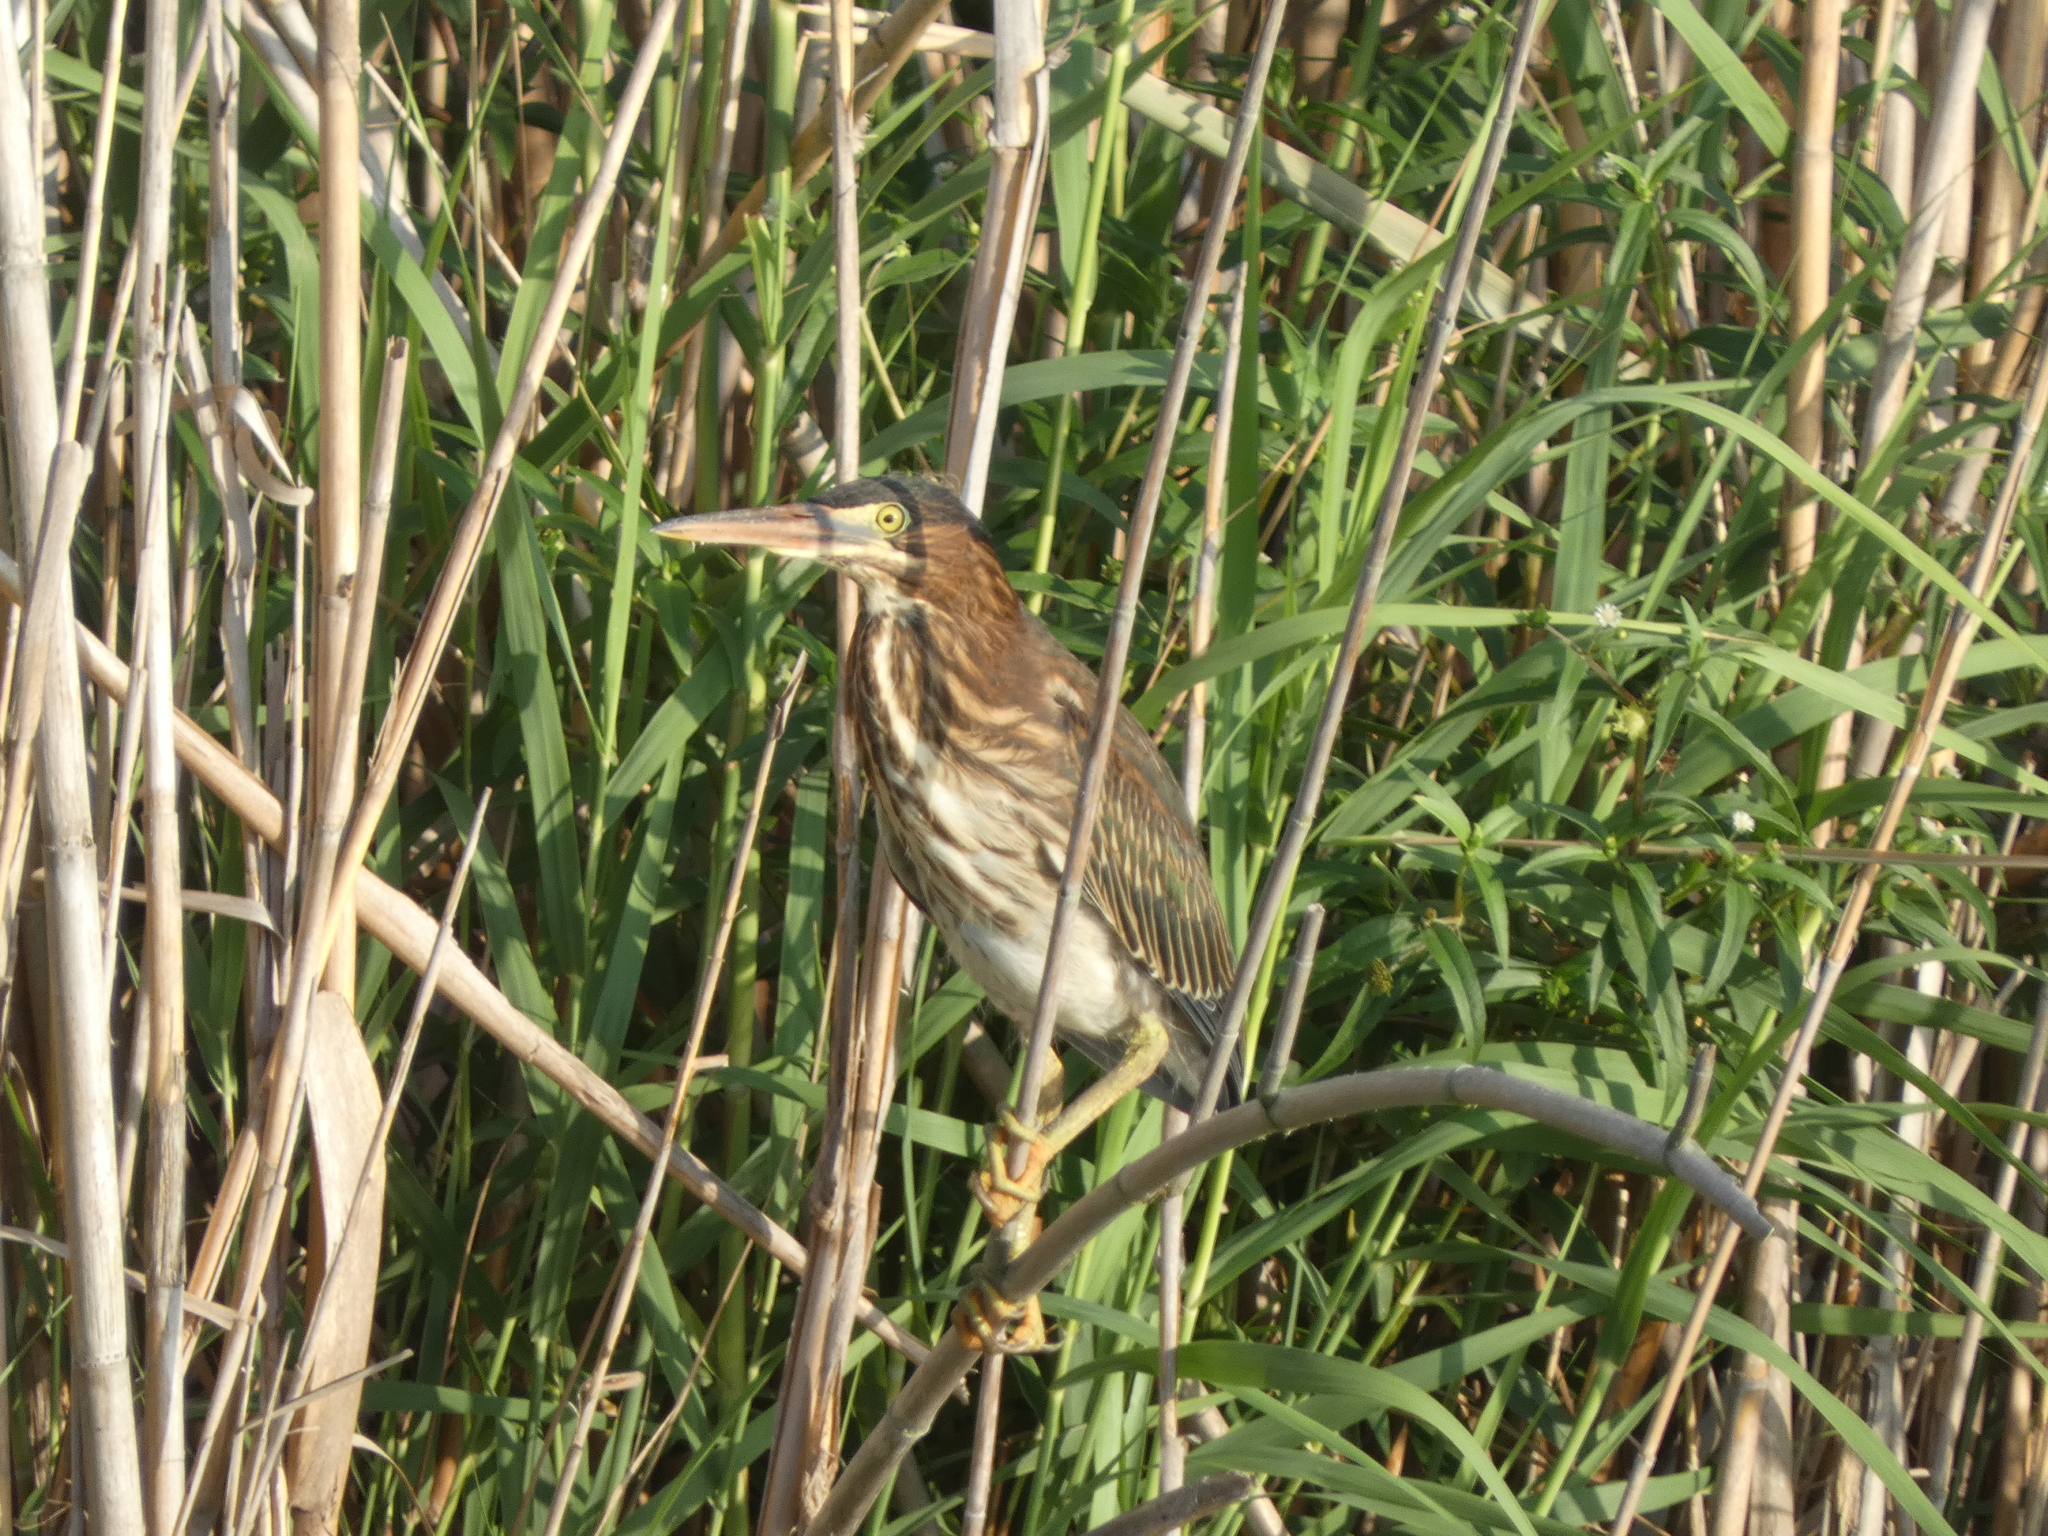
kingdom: Animalia
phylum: Chordata
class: Aves
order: Pelecaniformes
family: Ardeidae
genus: Butorides
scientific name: Butorides virescens
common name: Green heron
